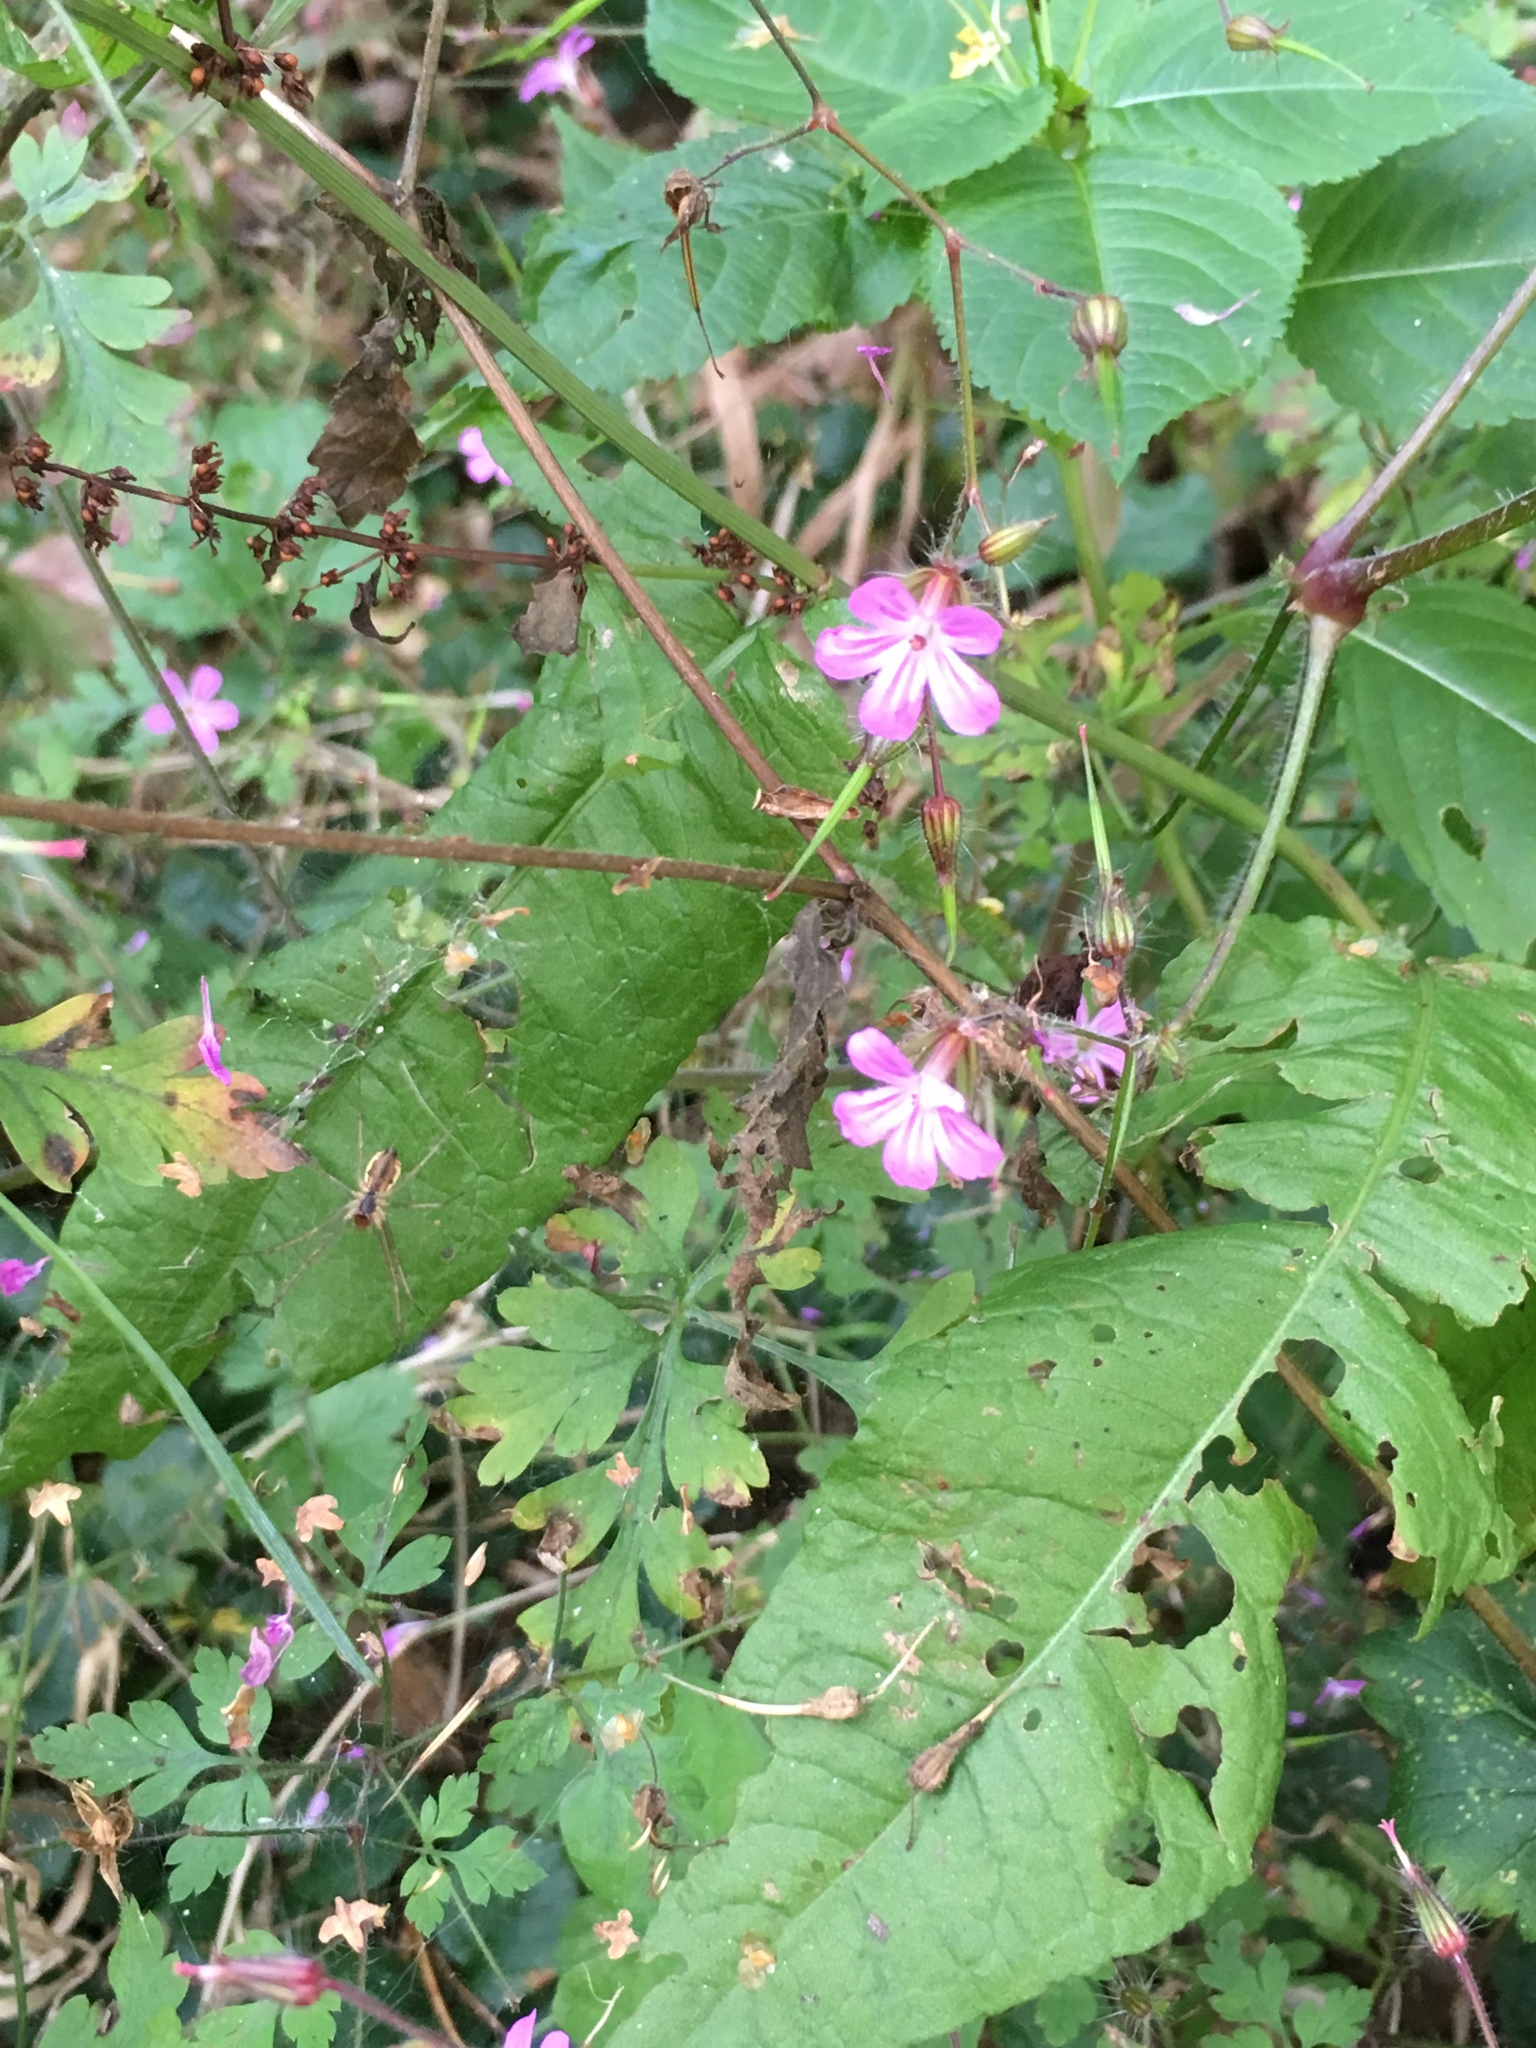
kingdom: Plantae
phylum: Tracheophyta
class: Magnoliopsida
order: Geraniales
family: Geraniaceae
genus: Geranium
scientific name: Geranium robertianum
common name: Herb-robert
